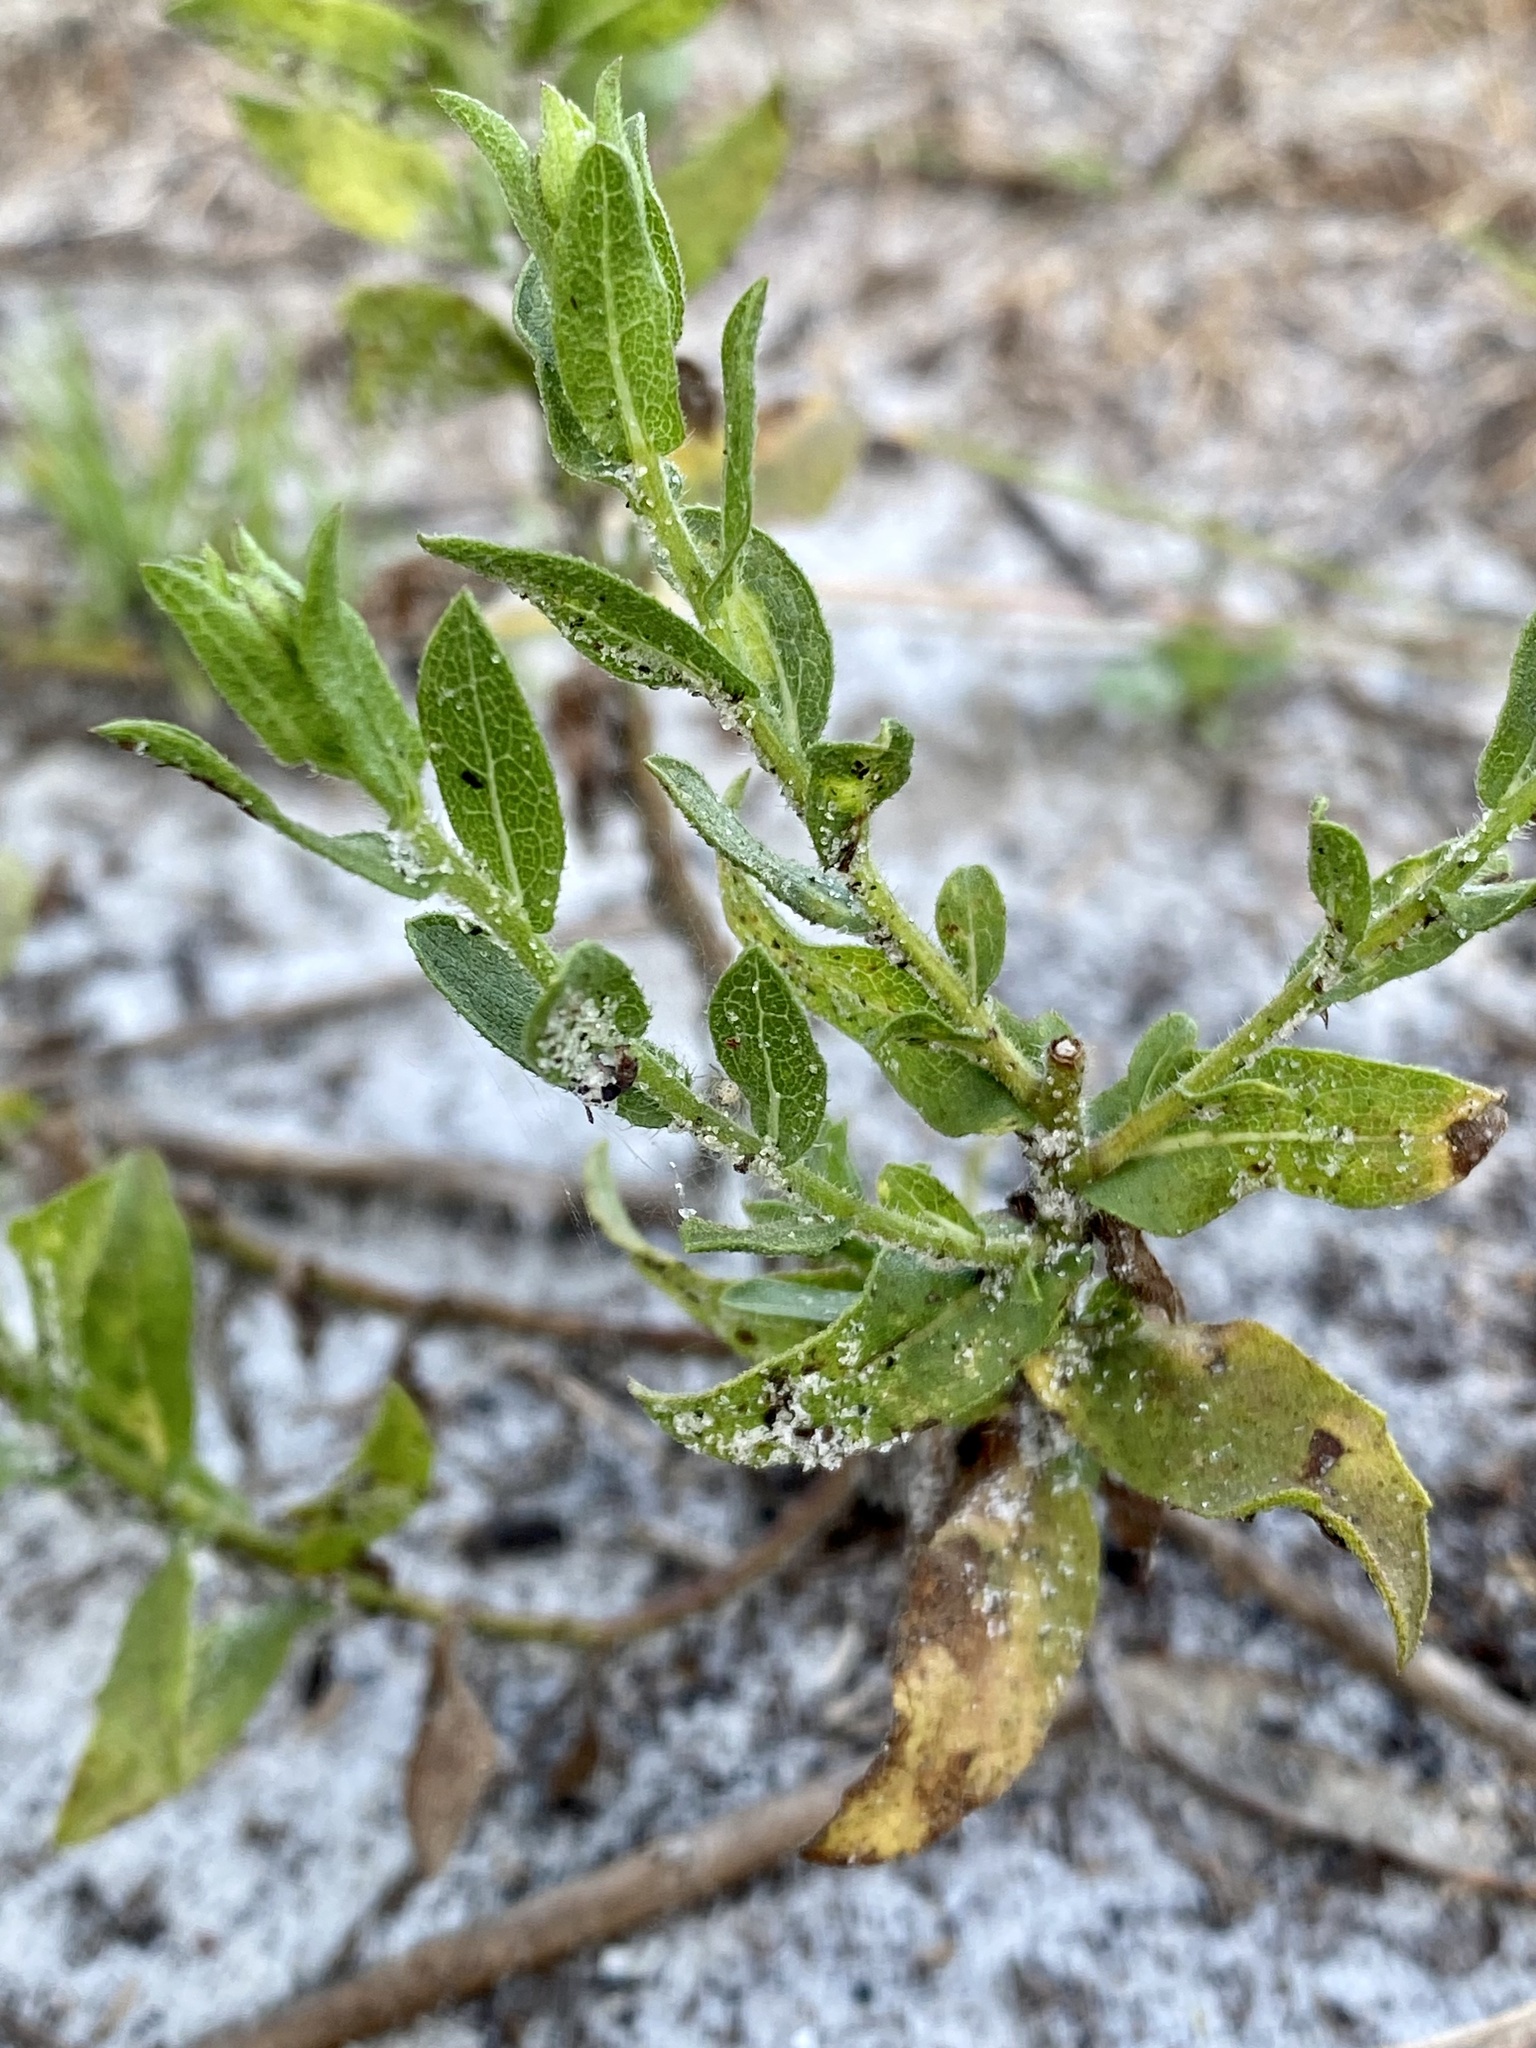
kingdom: Plantae
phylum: Tracheophyta
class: Magnoliopsida
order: Asterales
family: Asteraceae
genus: Heterotheca
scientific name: Heterotheca subaxillaris
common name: Camphorweed
